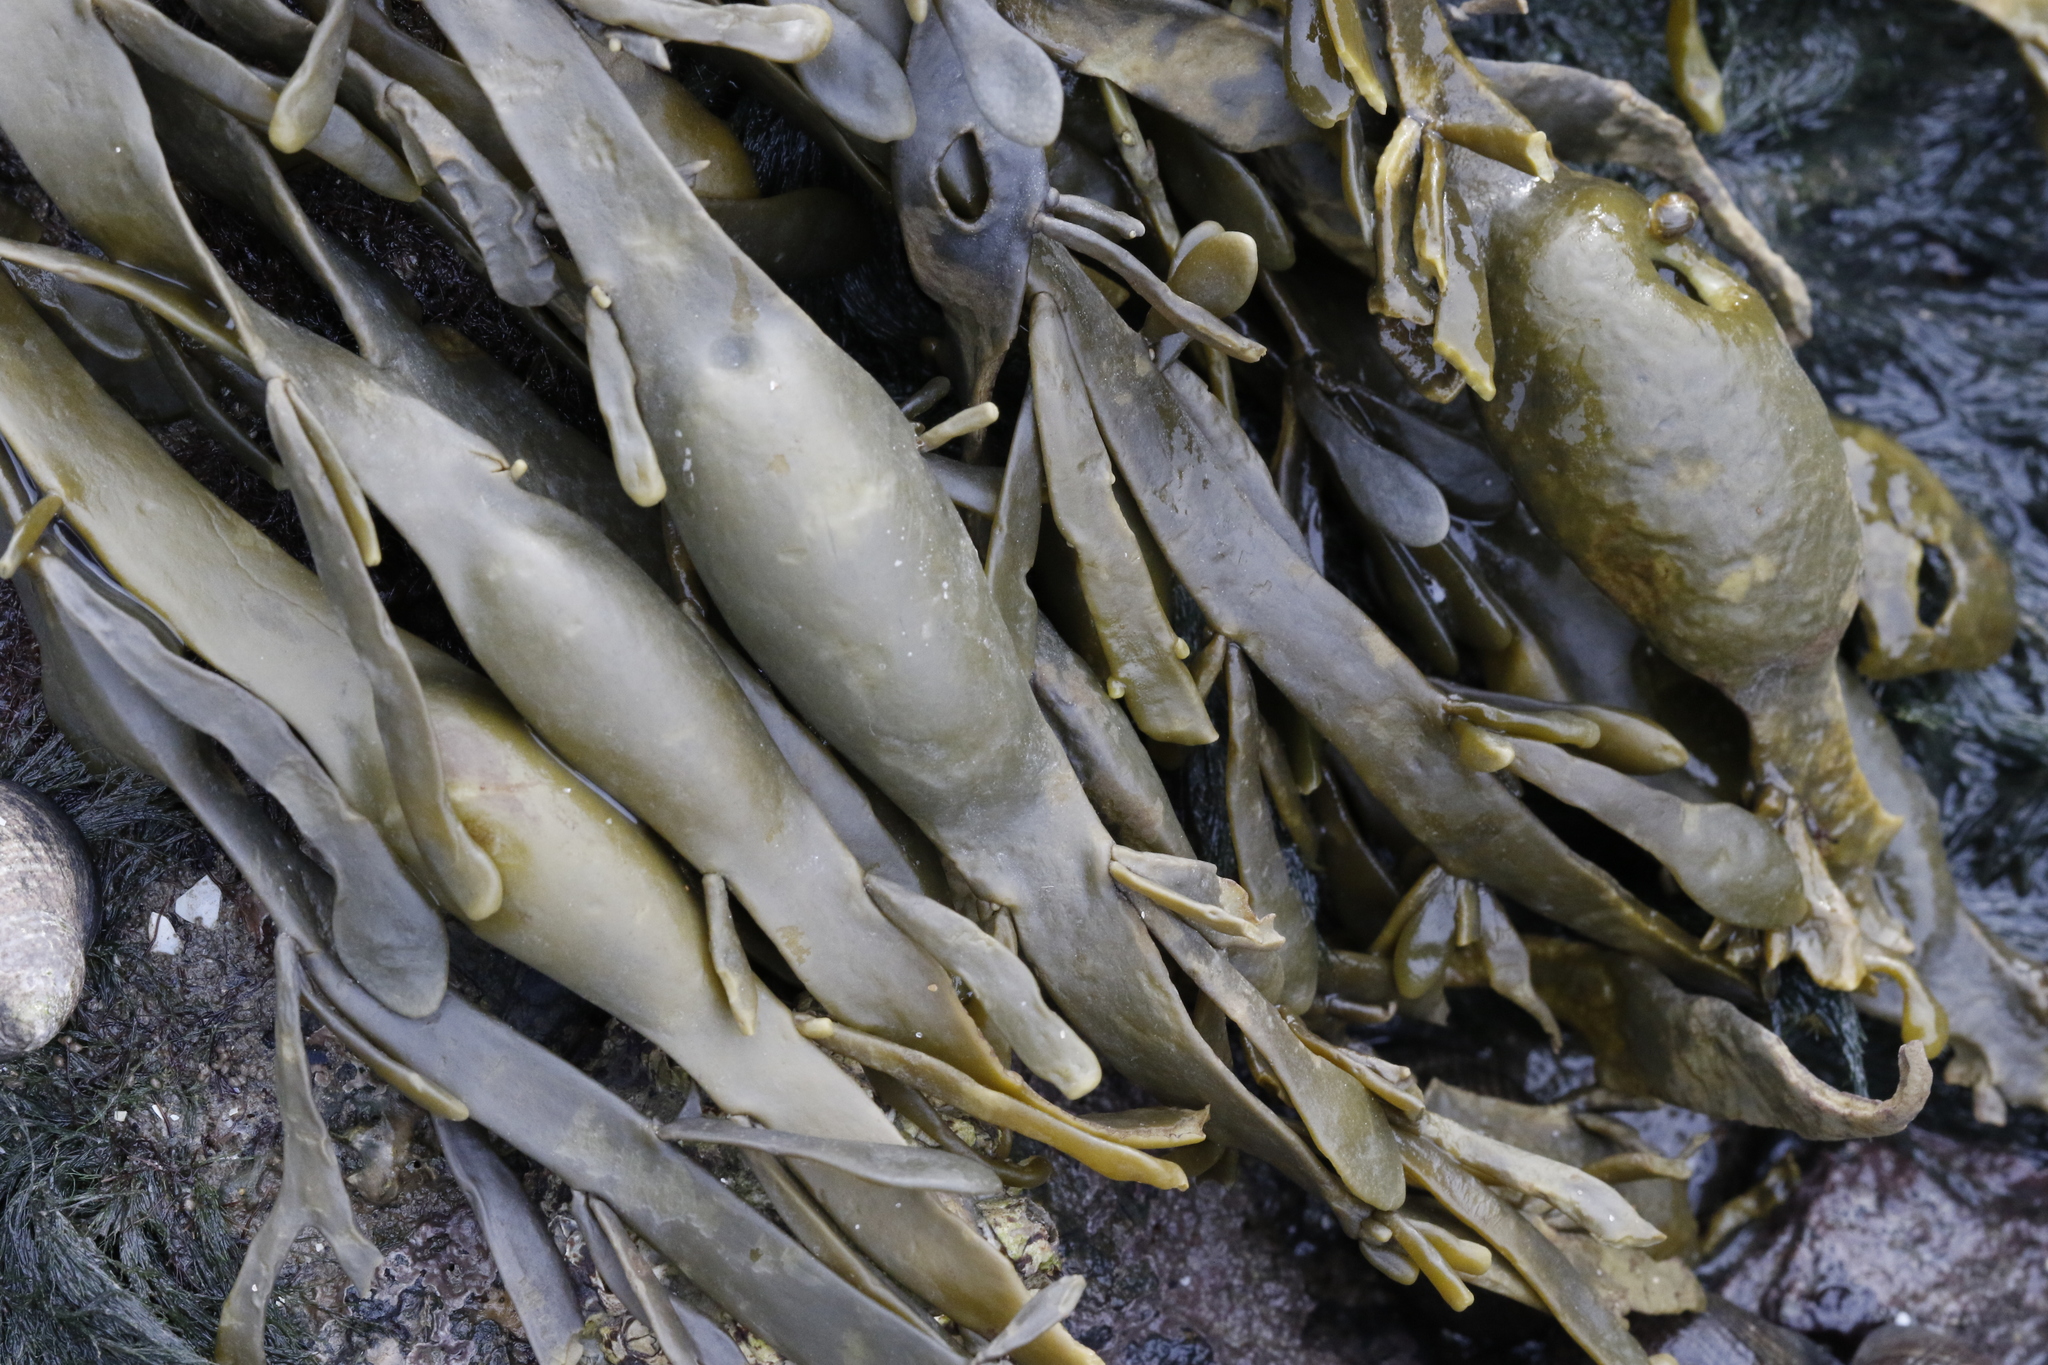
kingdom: Chromista
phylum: Ochrophyta
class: Phaeophyceae
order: Fucales
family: Fucaceae
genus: Ascophyllum
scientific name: Ascophyllum nodosum
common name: Knotted wrack
